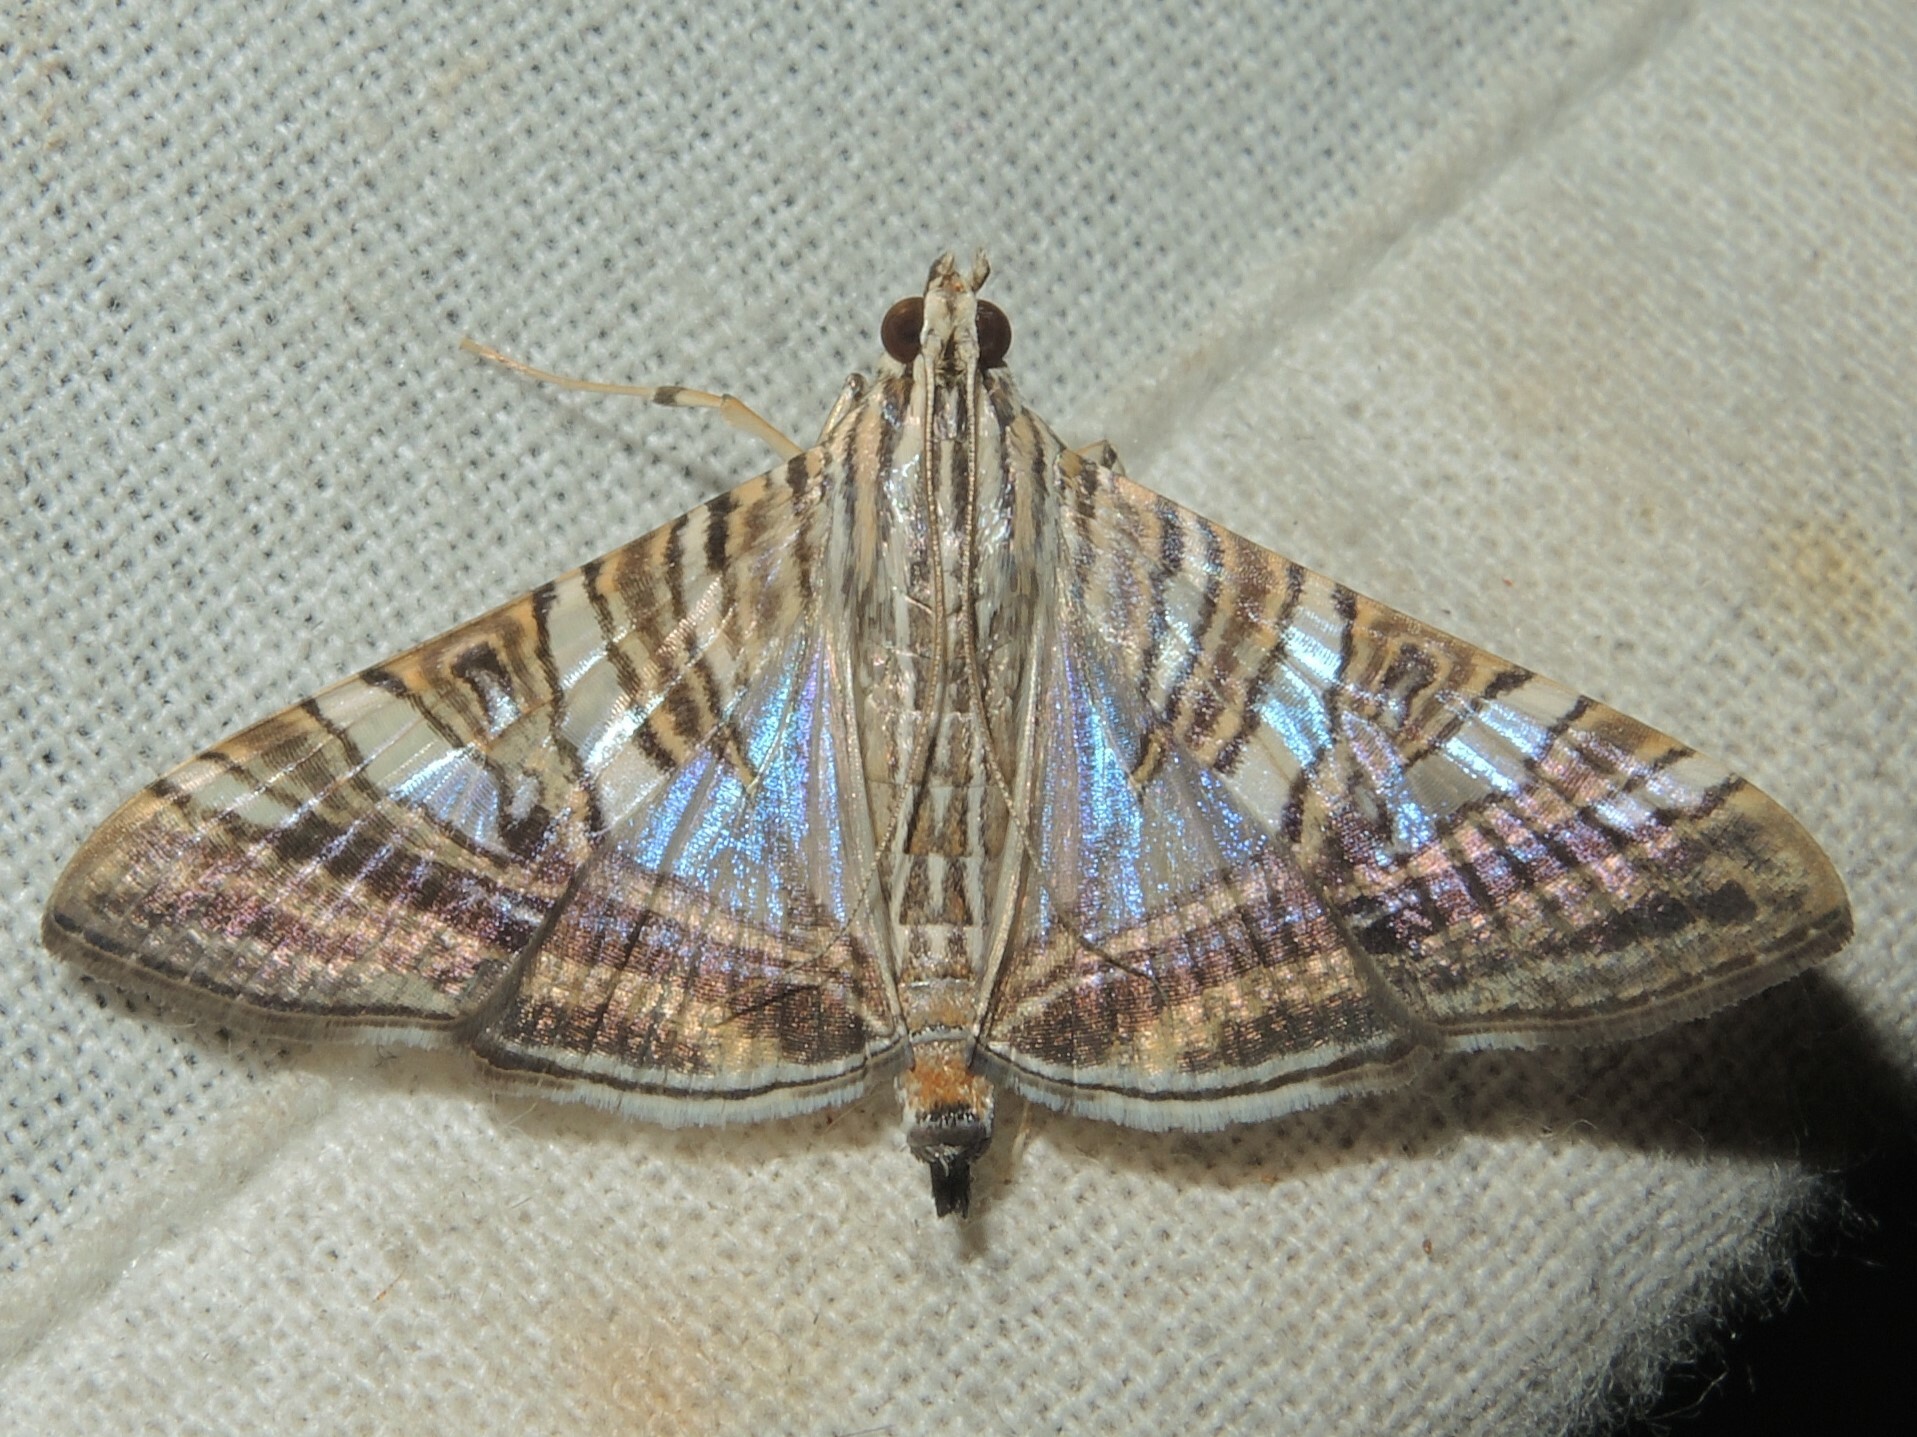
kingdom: Animalia
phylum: Arthropoda
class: Insecta
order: Lepidoptera
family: Crambidae
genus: Glyphodes
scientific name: Glyphodes stolalis
